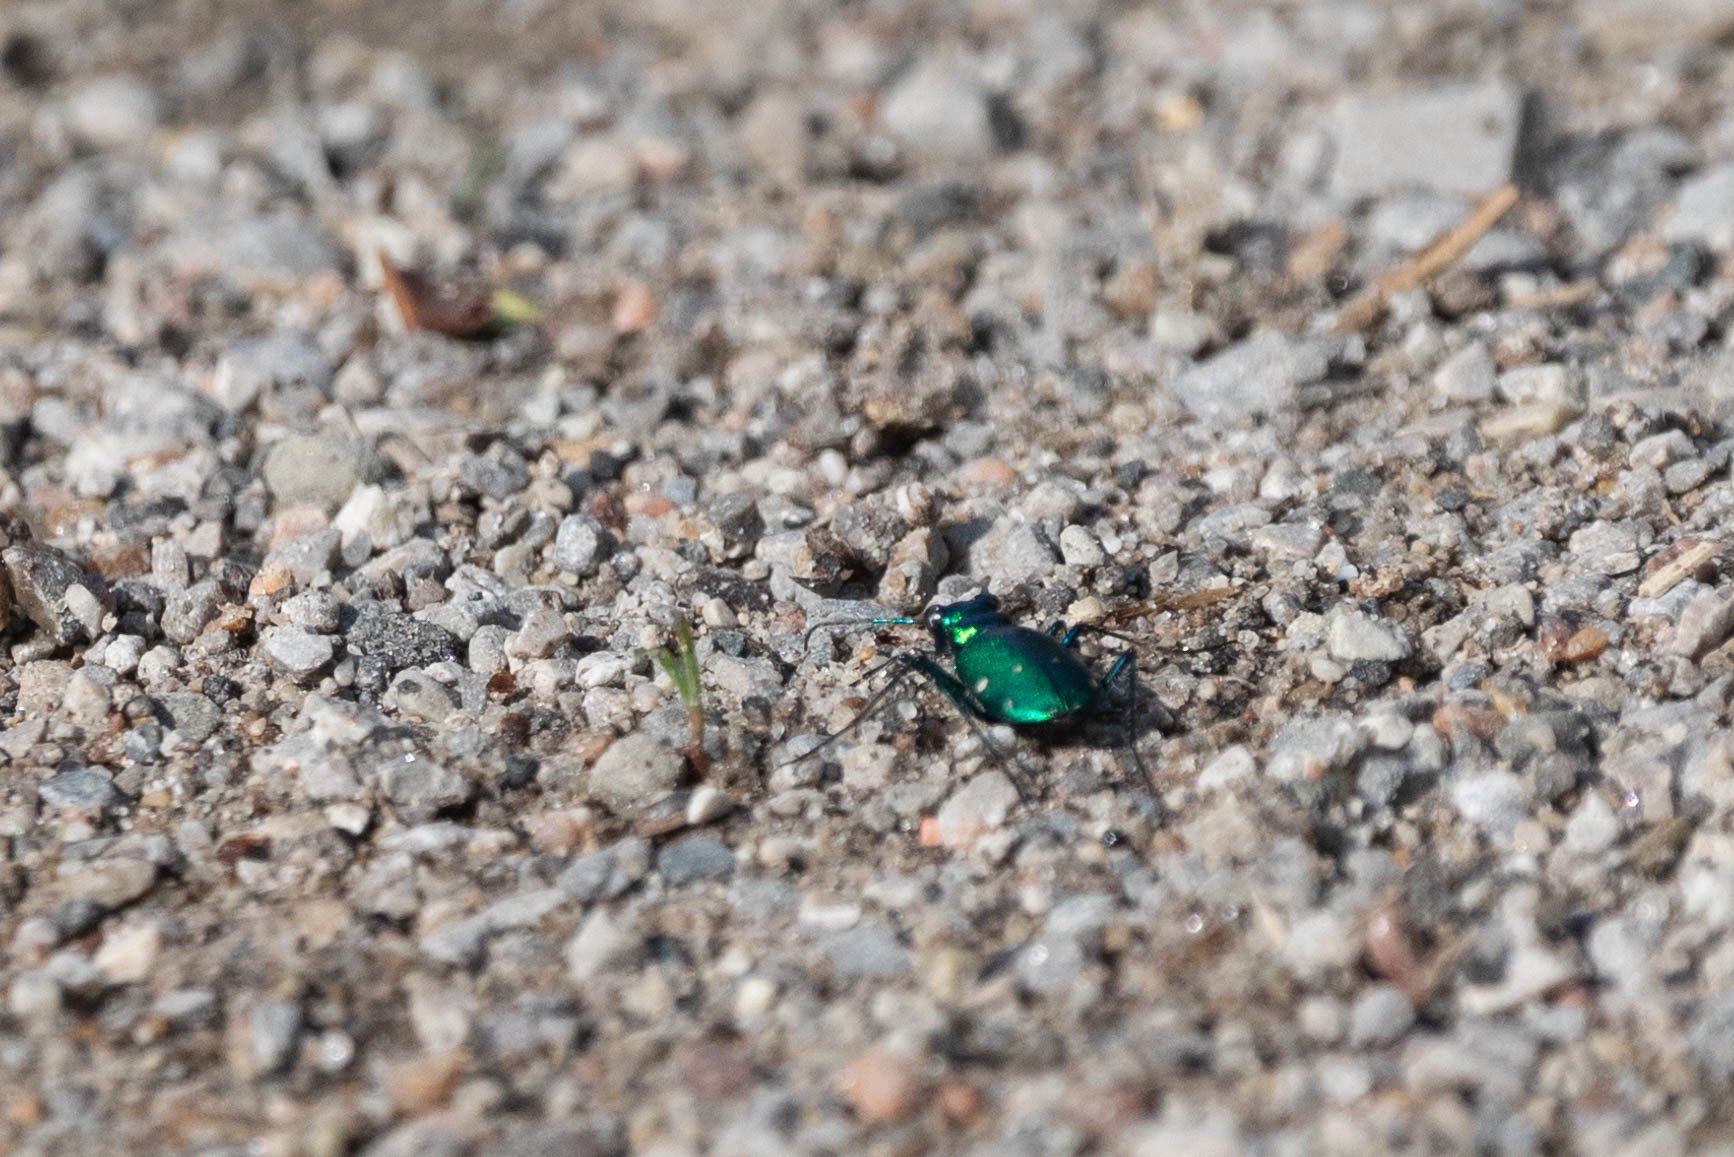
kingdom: Animalia
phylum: Arthropoda
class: Insecta
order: Coleoptera
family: Carabidae
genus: Cicindela
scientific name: Cicindela sexguttata
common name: Six-spotted tiger beetle
